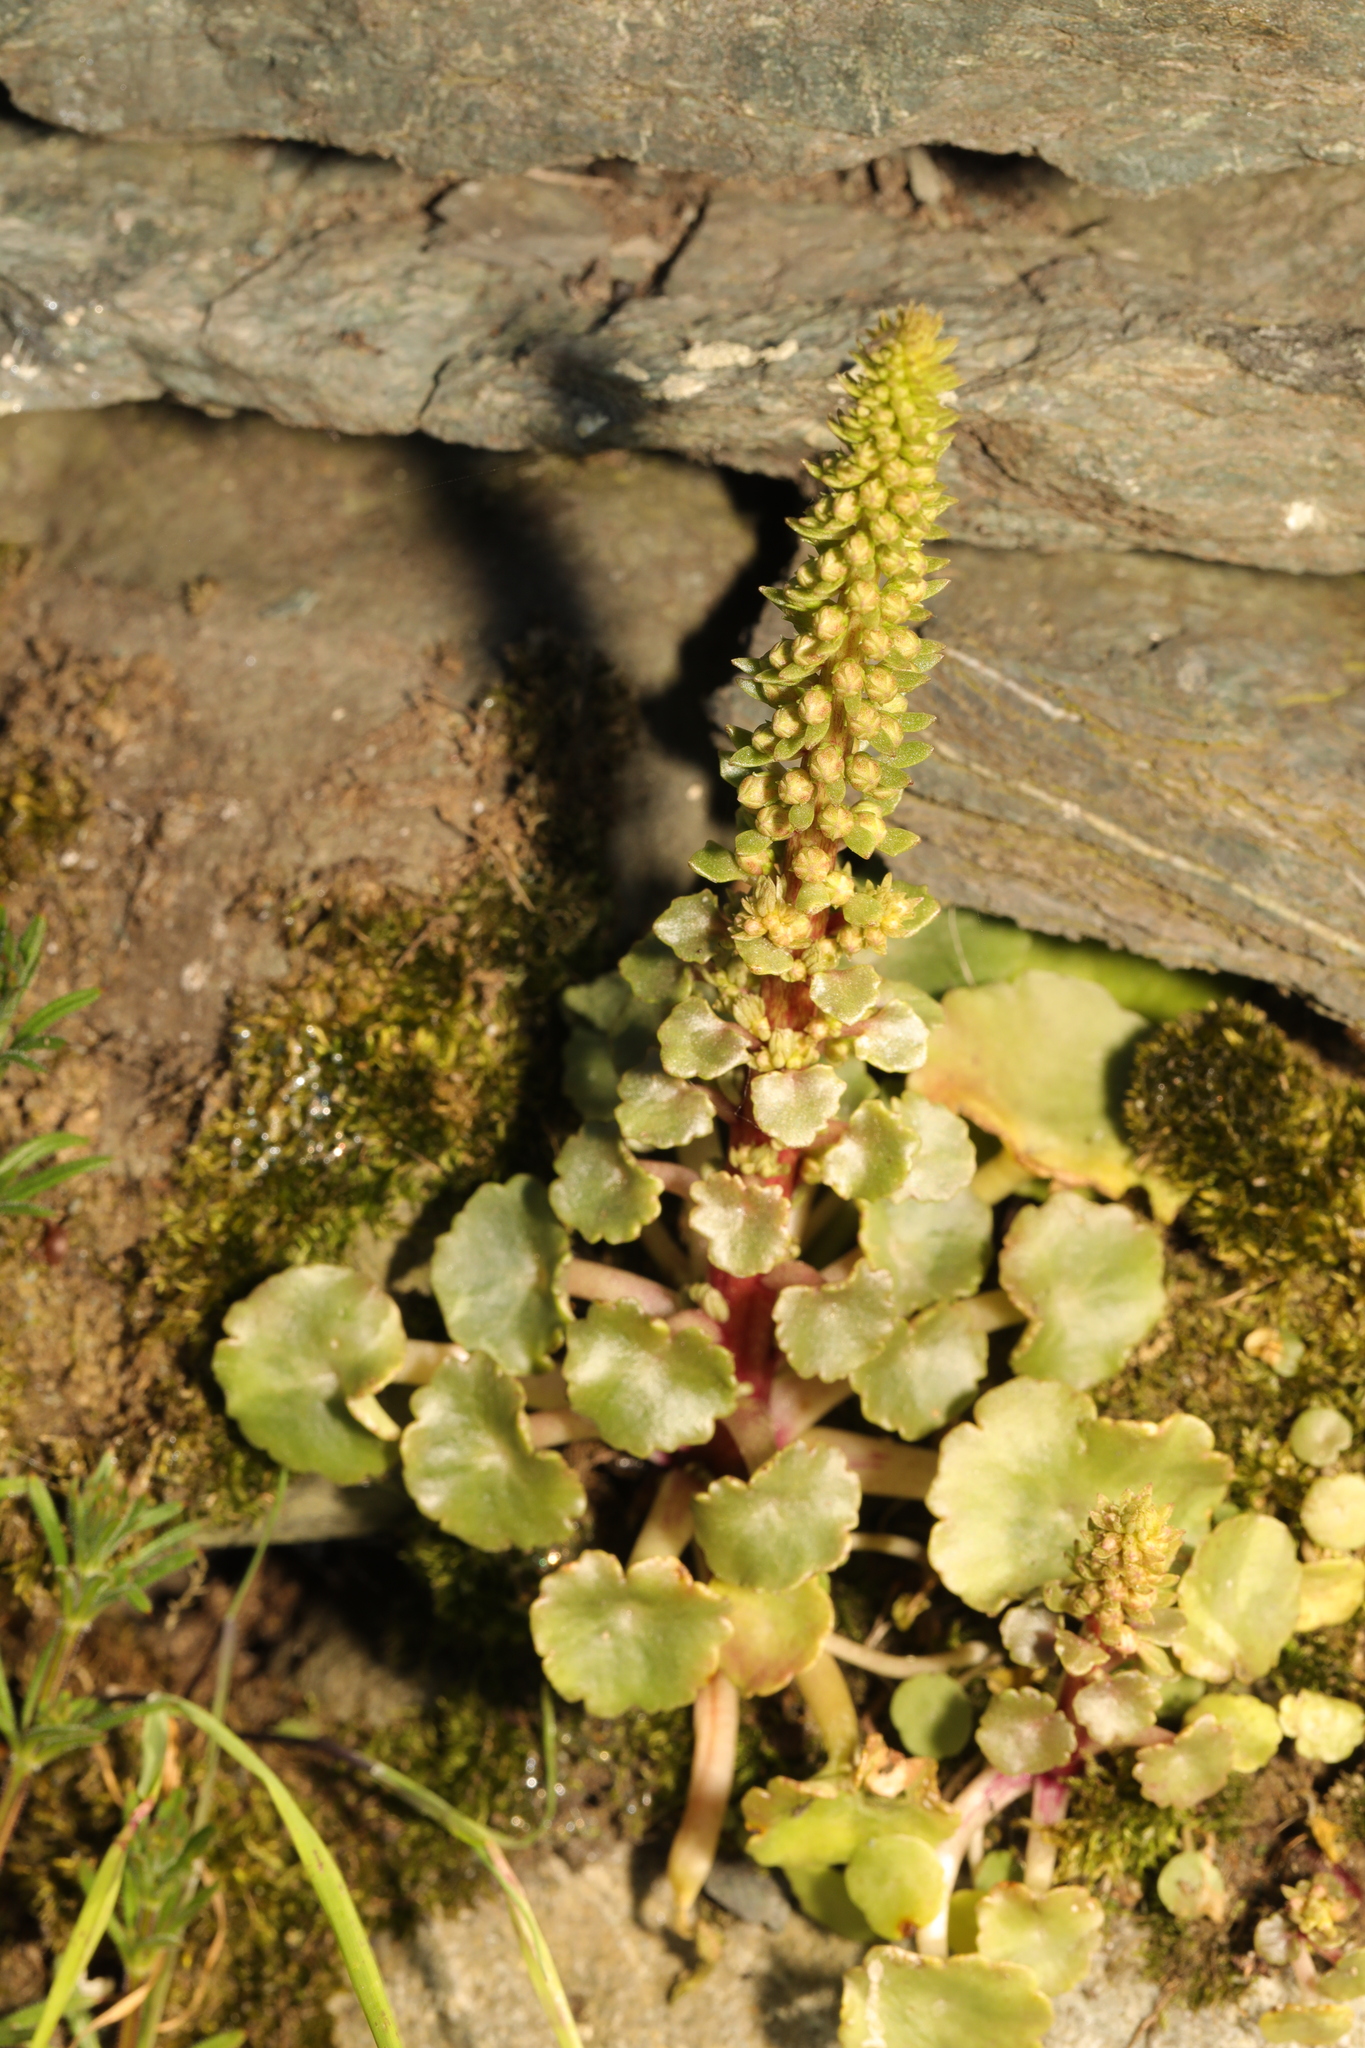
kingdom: Plantae
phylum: Tracheophyta
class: Magnoliopsida
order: Saxifragales
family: Crassulaceae
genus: Umbilicus
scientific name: Umbilicus rupestris
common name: Navelwort
